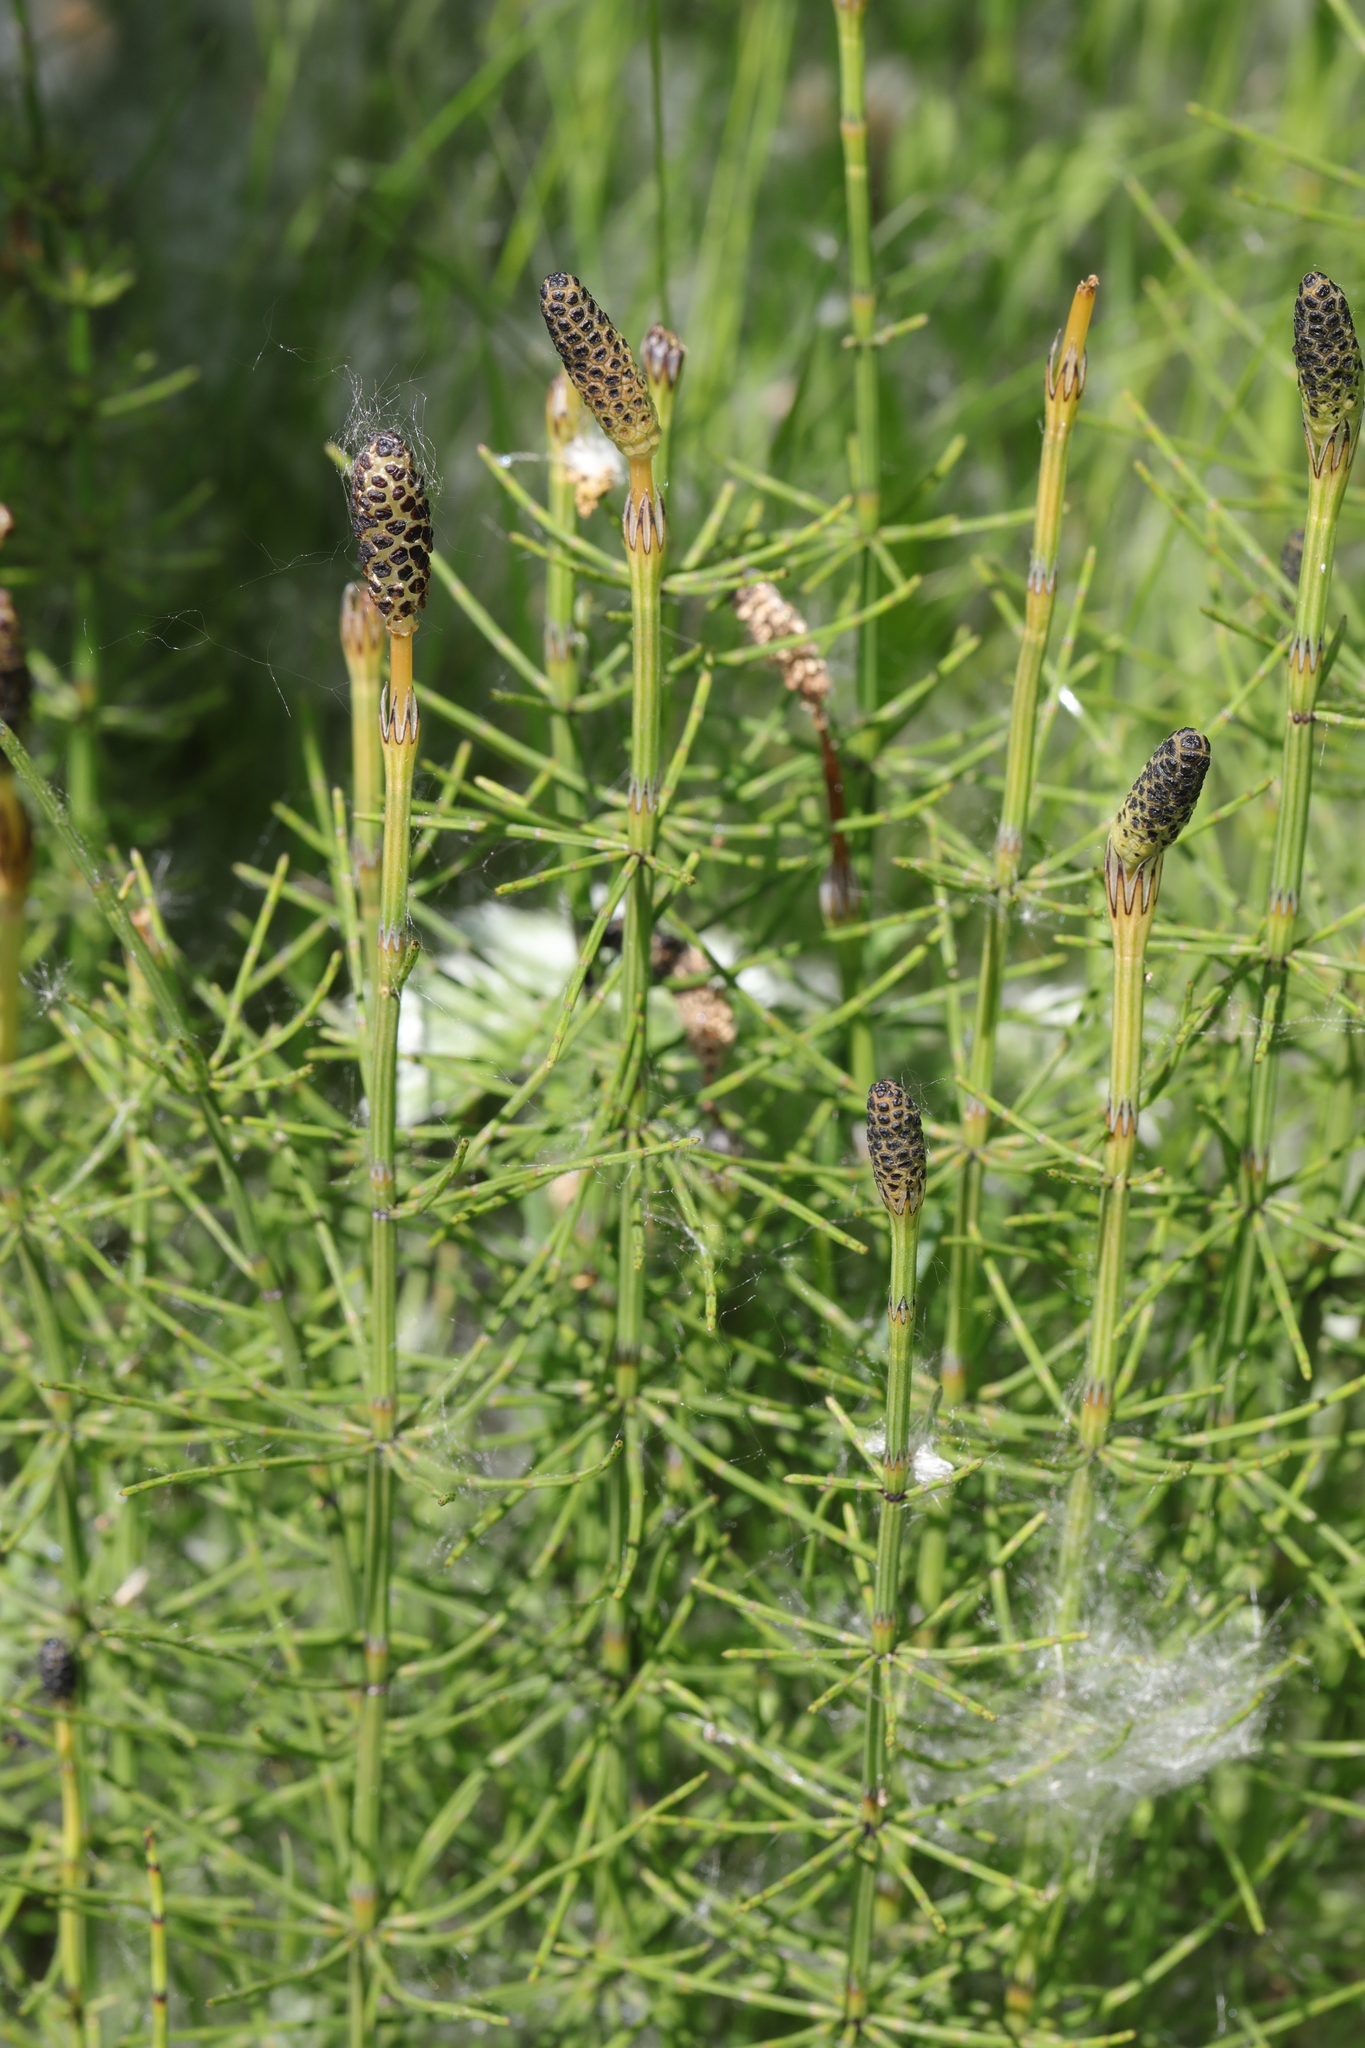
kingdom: Plantae
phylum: Tracheophyta
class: Polypodiopsida
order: Equisetales
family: Equisetaceae
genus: Equisetum
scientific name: Equisetum palustre
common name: Marsh horsetail
